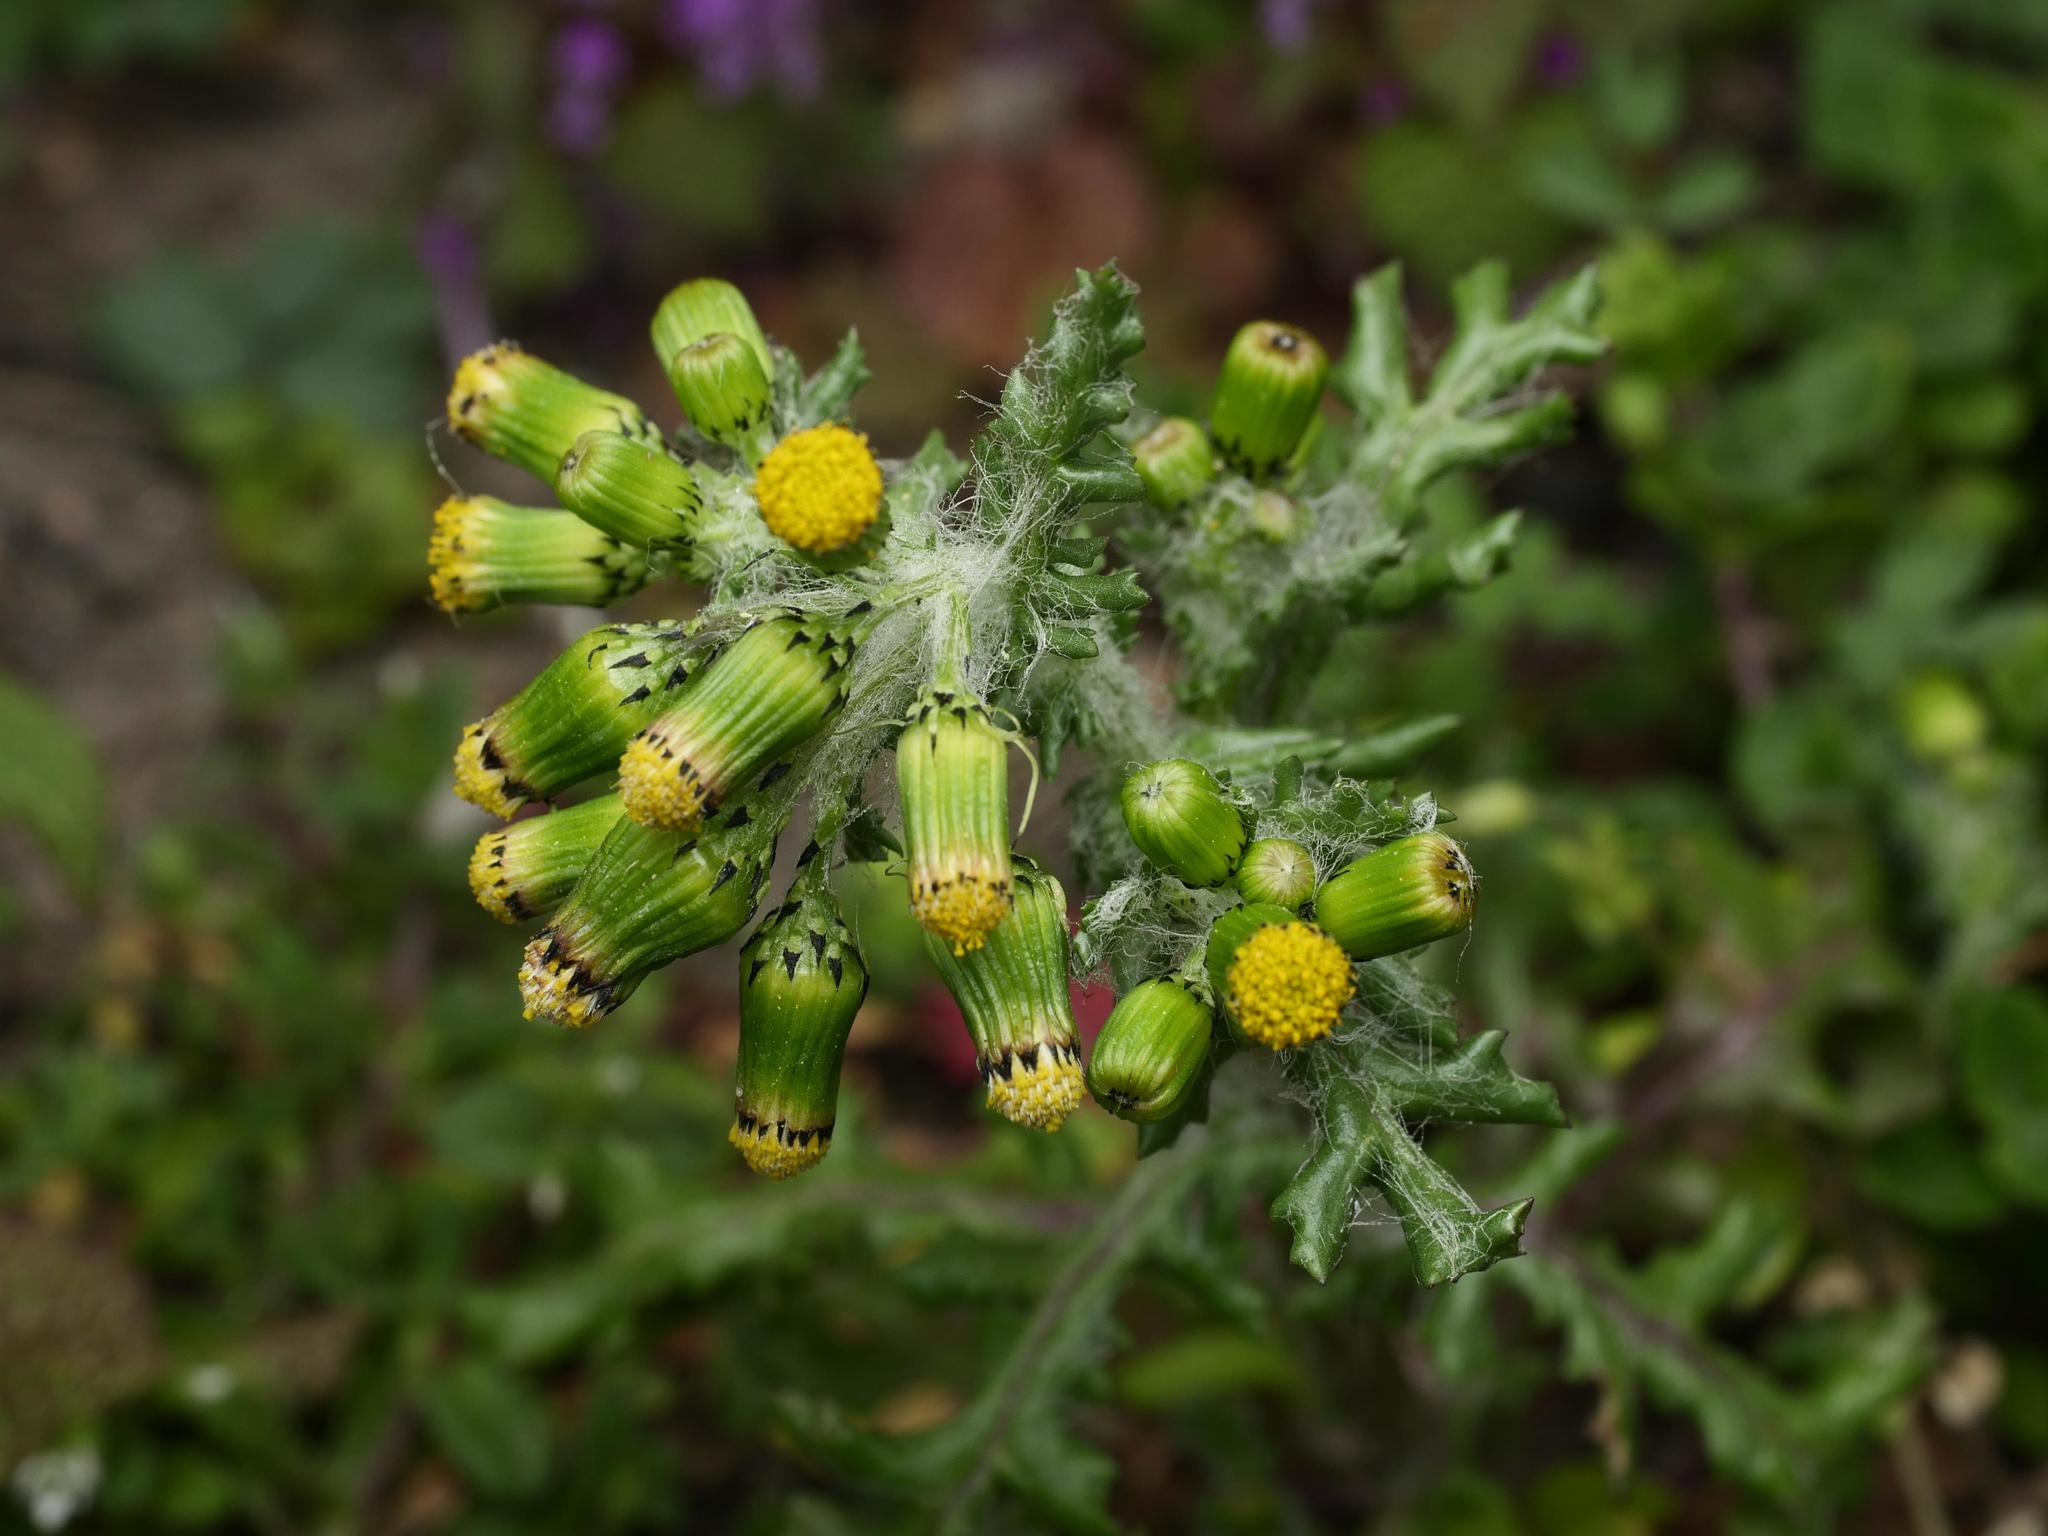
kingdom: Plantae
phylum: Tracheophyta
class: Magnoliopsida
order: Asterales
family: Asteraceae
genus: Senecio
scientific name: Senecio vulgaris
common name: Old-man-in-the-spring
